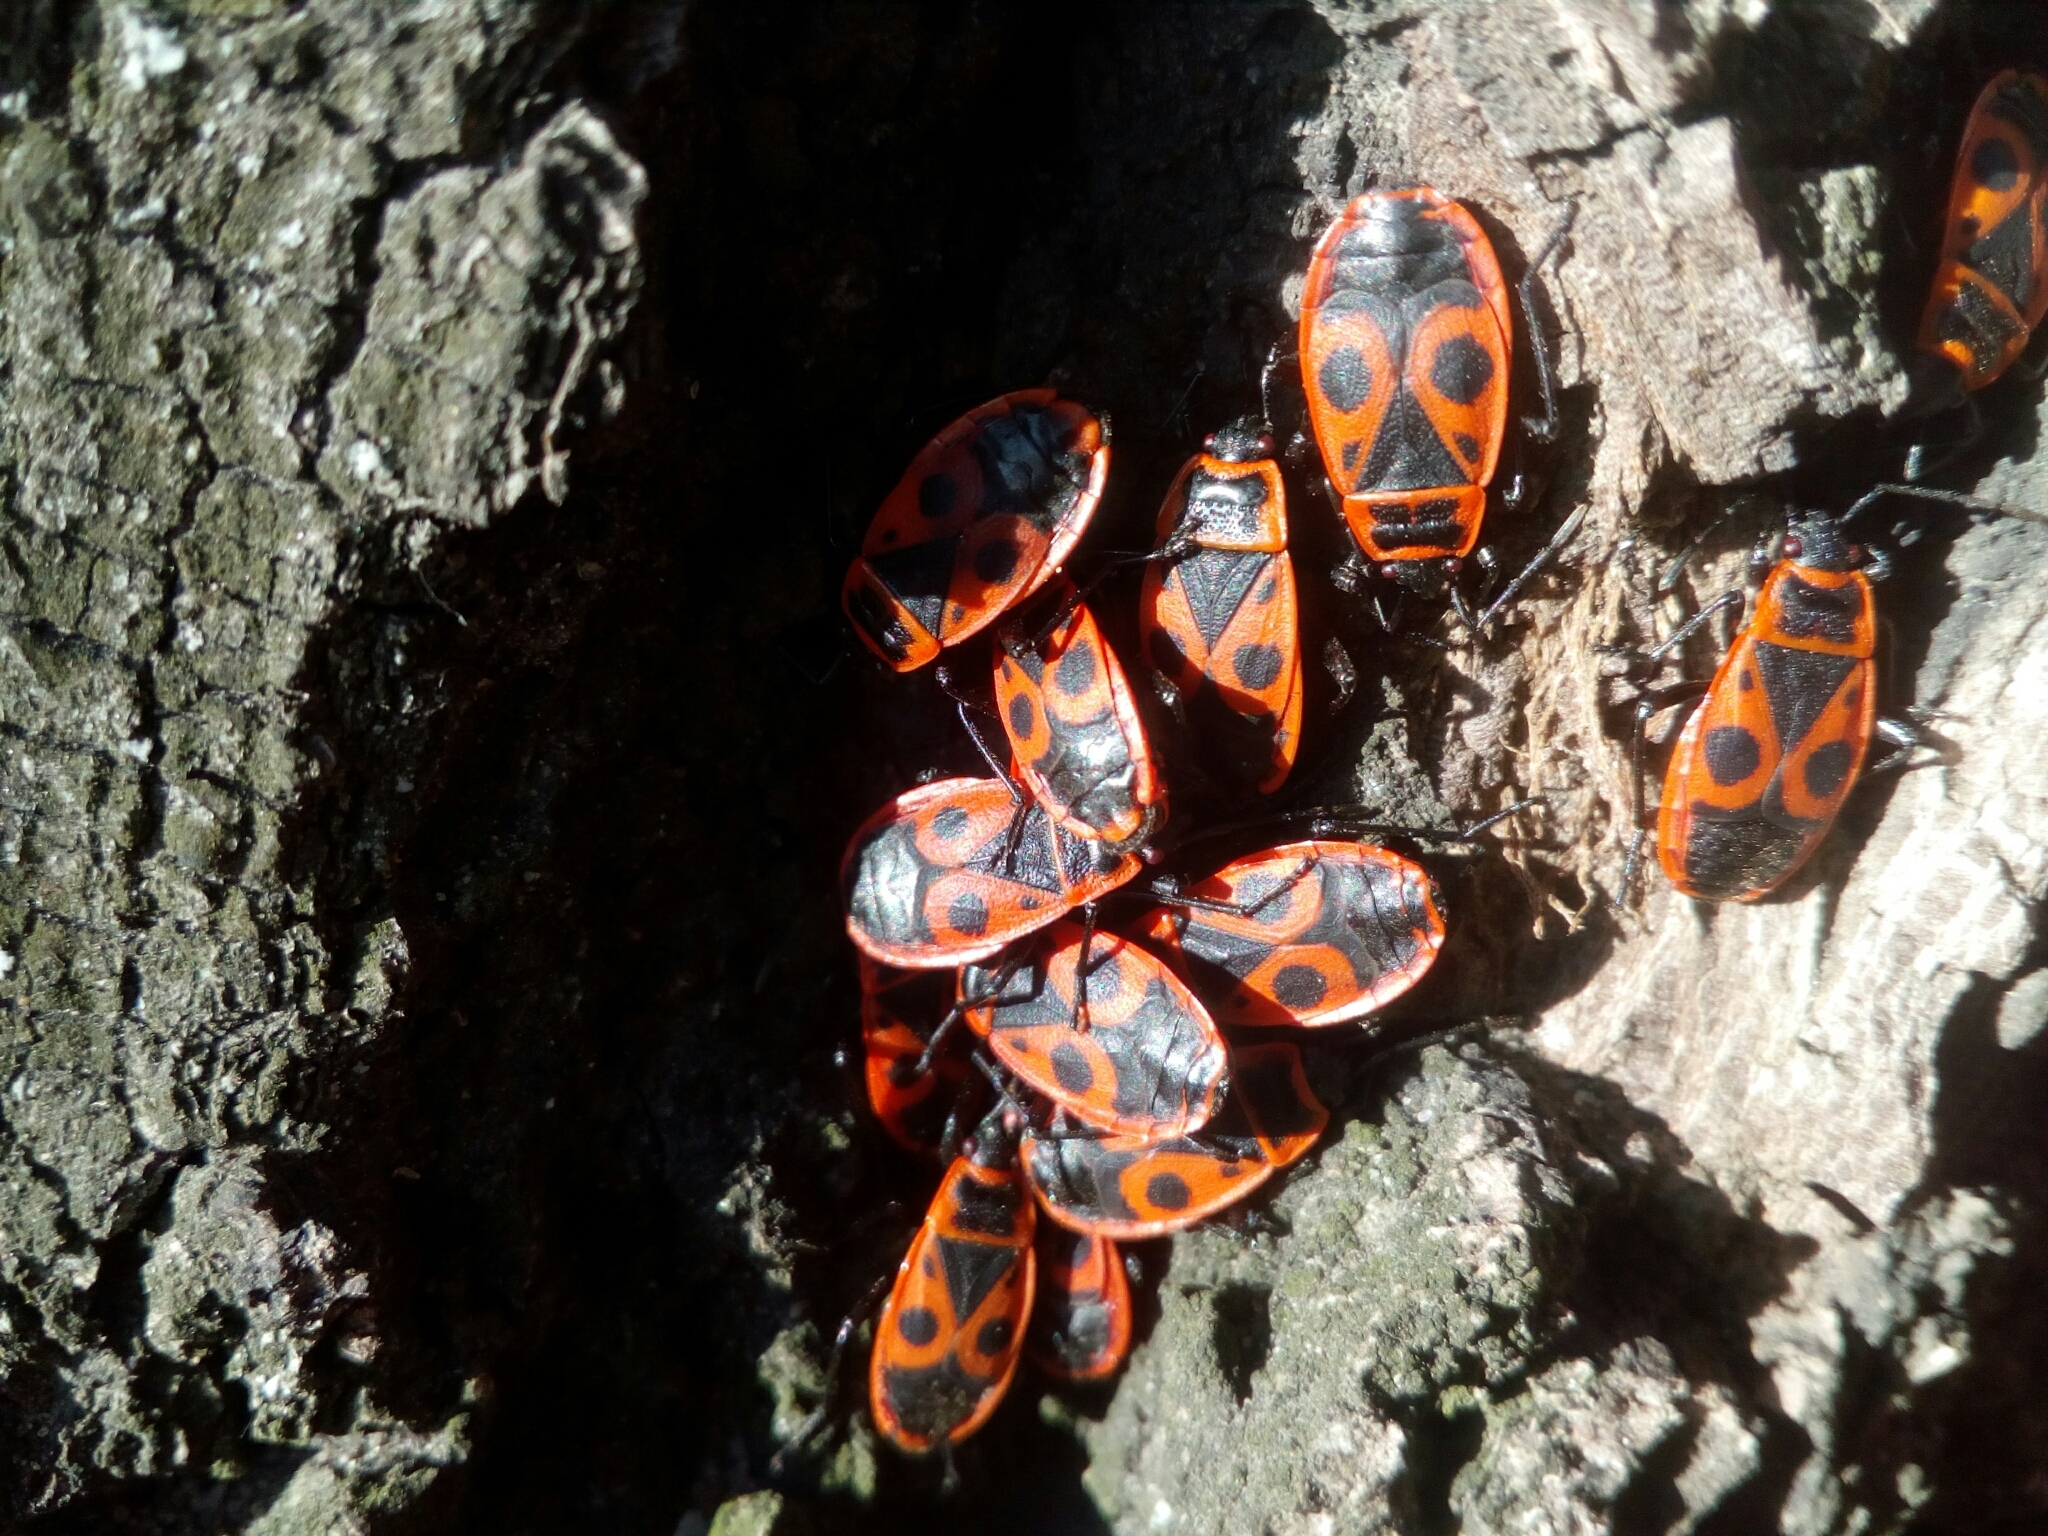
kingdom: Animalia
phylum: Arthropoda
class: Insecta
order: Hemiptera
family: Pyrrhocoridae
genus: Pyrrhocoris
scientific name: Pyrrhocoris apterus
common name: Firebug
